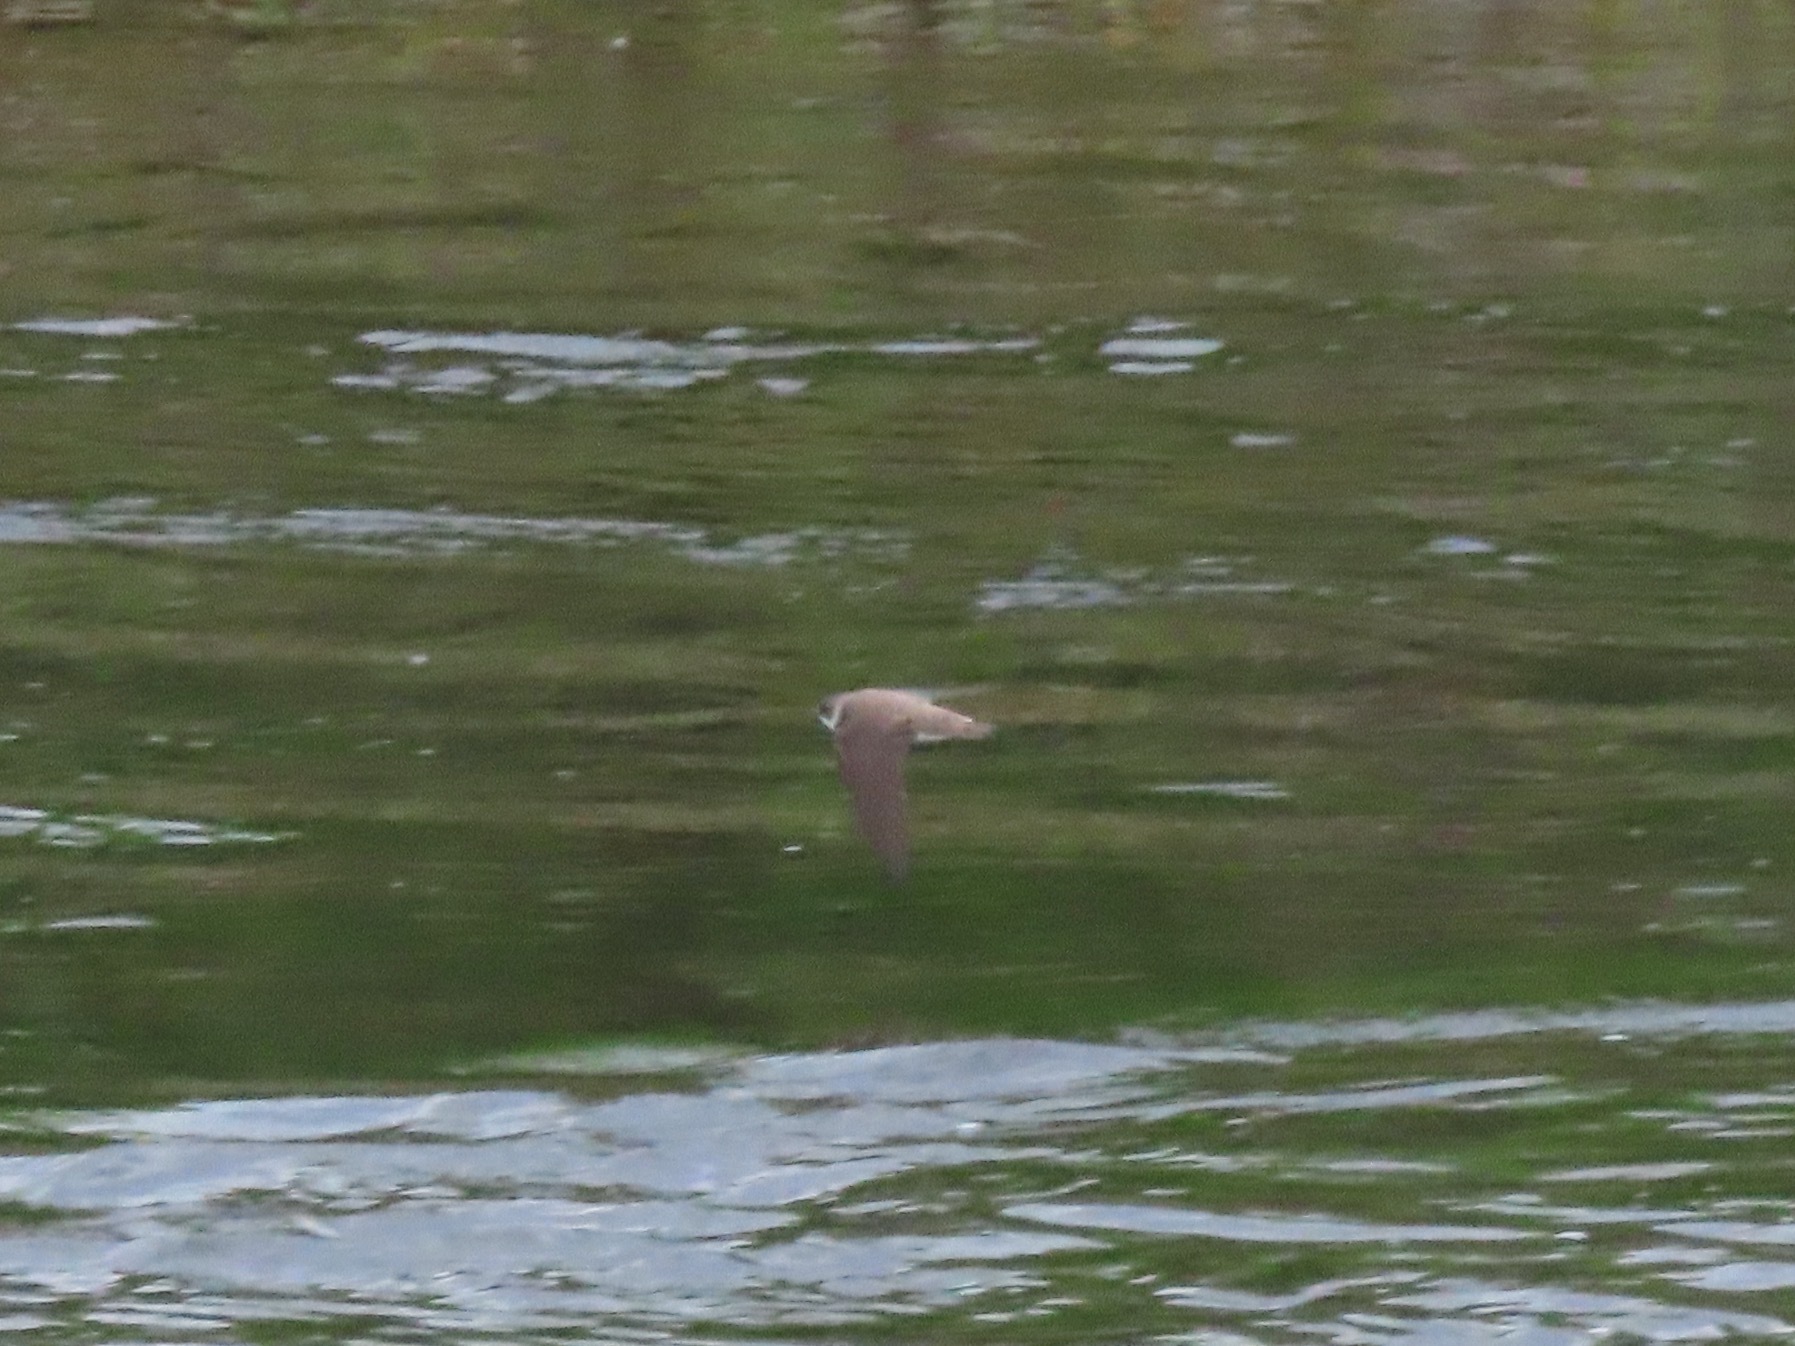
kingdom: Animalia
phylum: Chordata
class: Aves
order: Passeriformes
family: Hirundinidae
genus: Riparia
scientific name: Riparia riparia
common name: Sand martin
